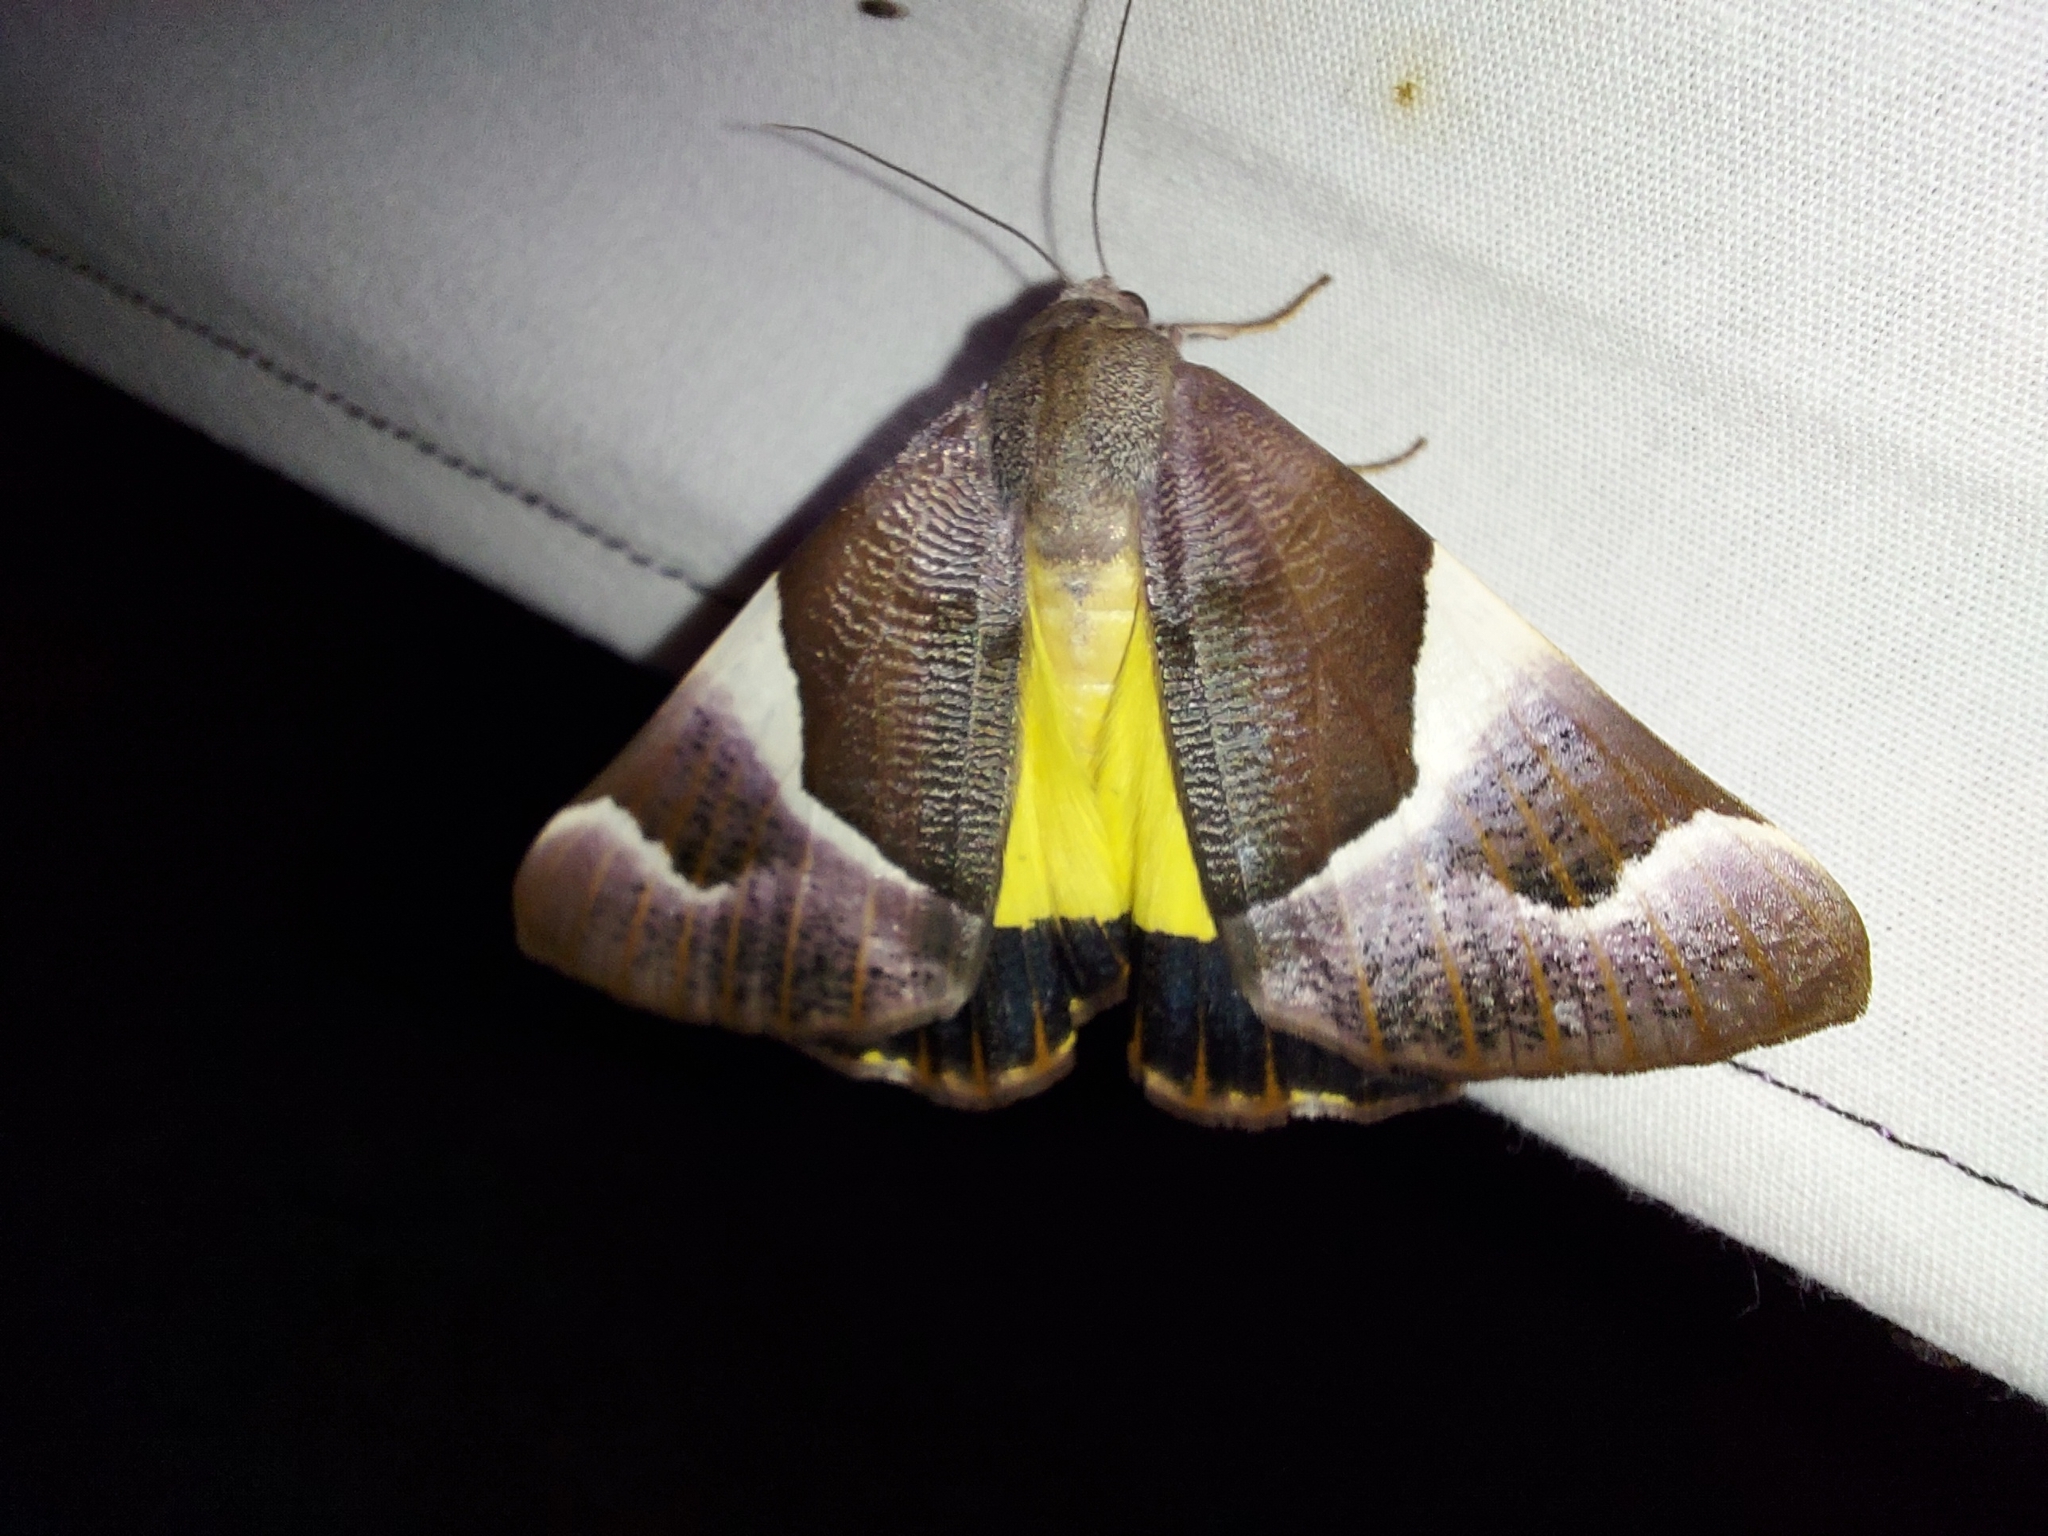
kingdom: Animalia
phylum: Arthropoda
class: Insecta
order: Lepidoptera
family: Geometridae
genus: Niceteria
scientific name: Niceteria macrocosma
